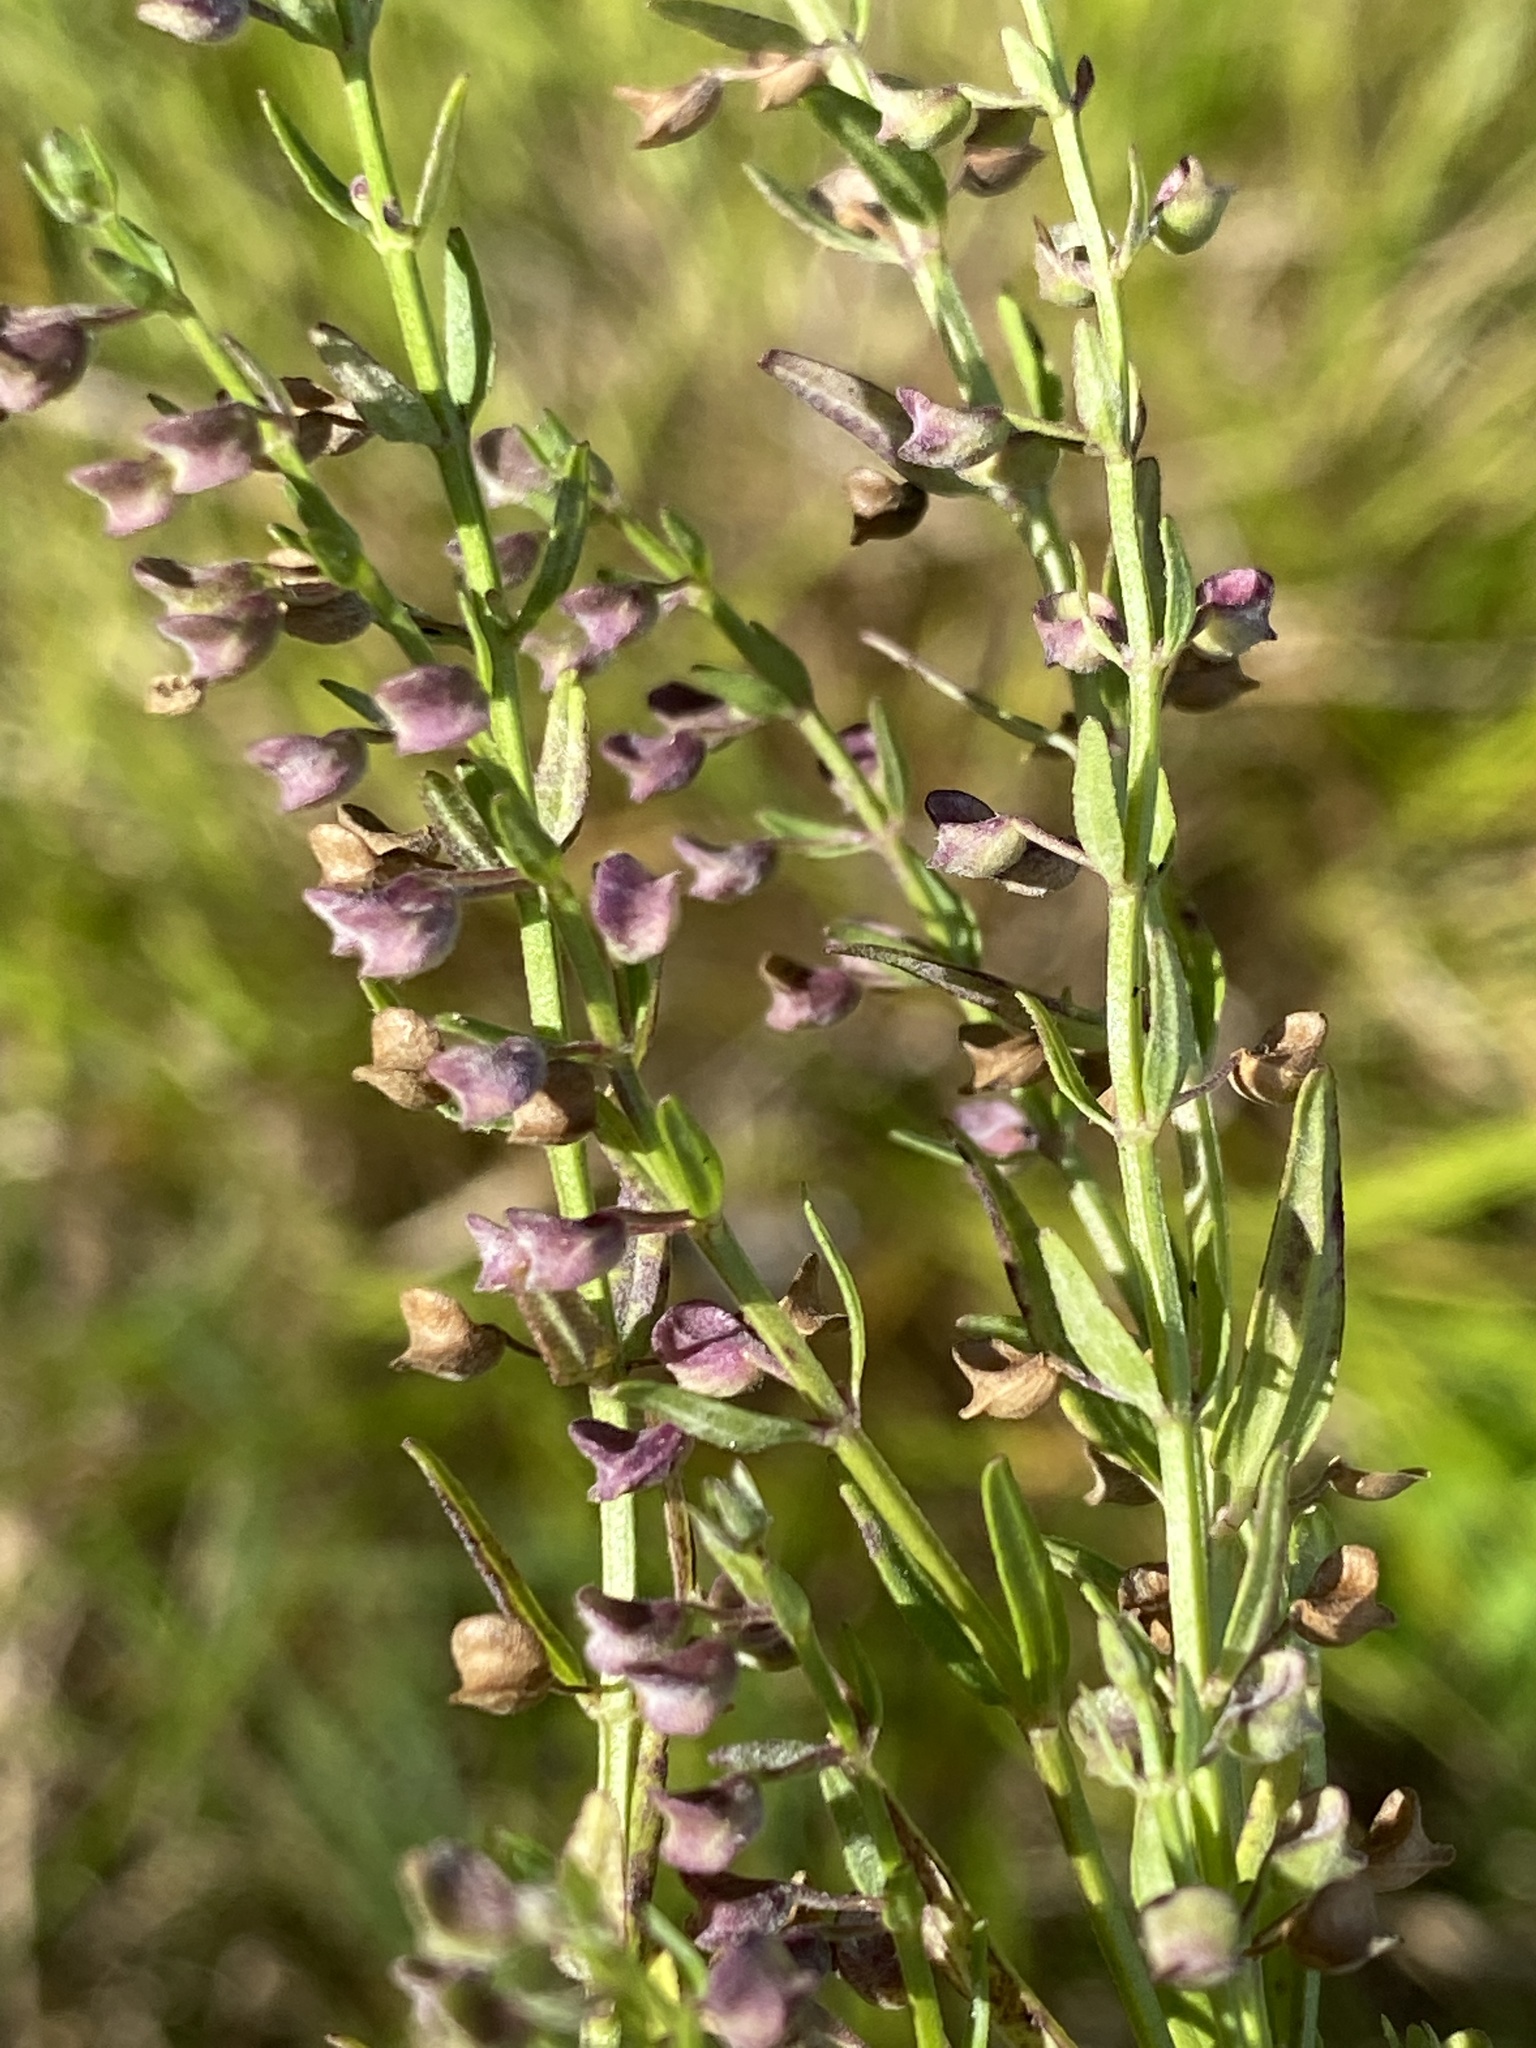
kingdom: Plantae
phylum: Tracheophyta
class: Magnoliopsida
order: Lamiales
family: Lamiaceae
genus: Scutellaria
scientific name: Scutellaria racemosa
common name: South american skullcap
